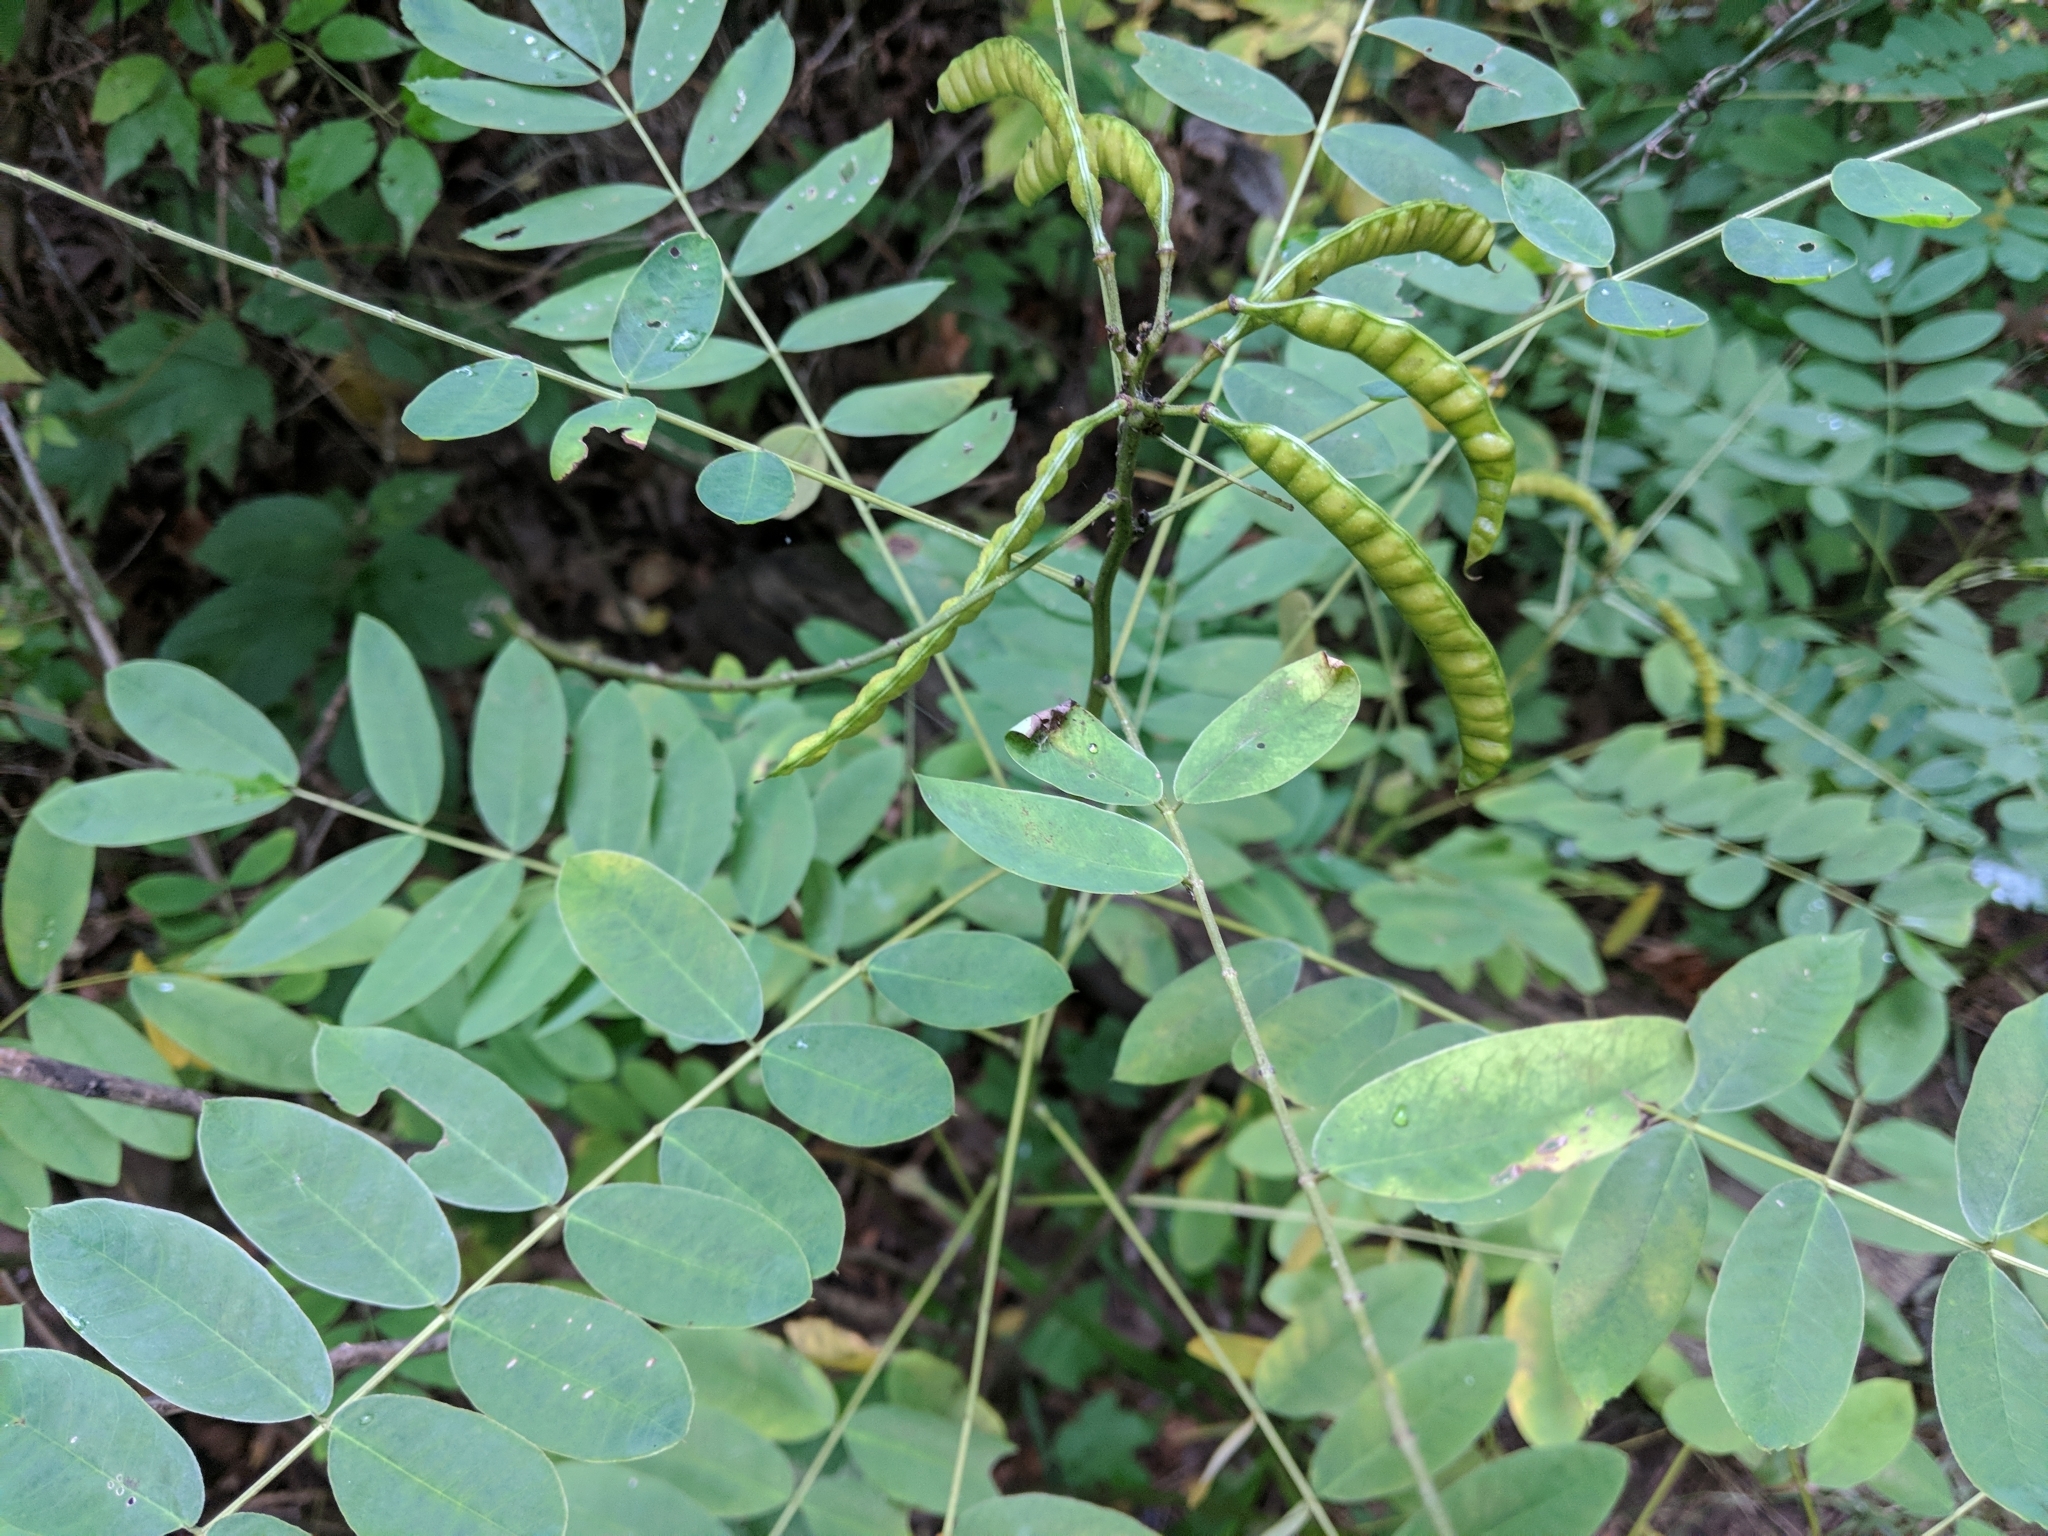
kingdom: Plantae
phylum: Tracheophyta
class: Magnoliopsida
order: Fabales
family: Fabaceae
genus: Senna
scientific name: Senna marilandica
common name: American senna
